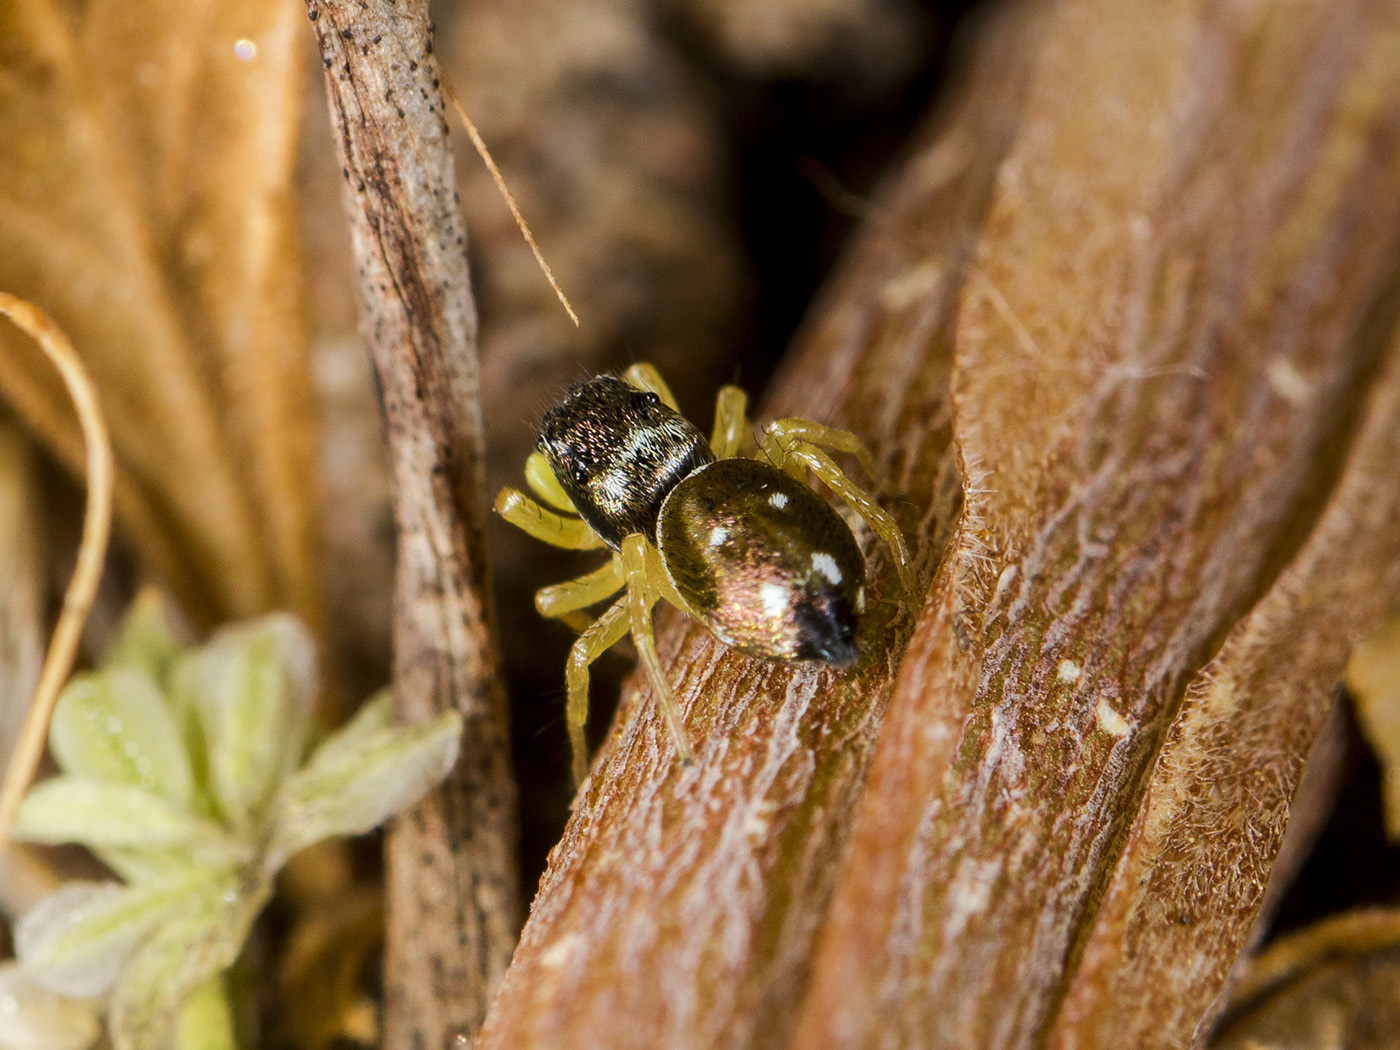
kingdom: Animalia
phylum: Arthropoda
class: Arachnida
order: Araneae
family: Salticidae
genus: Heliophanus
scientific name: Heliophanus chovdensis
